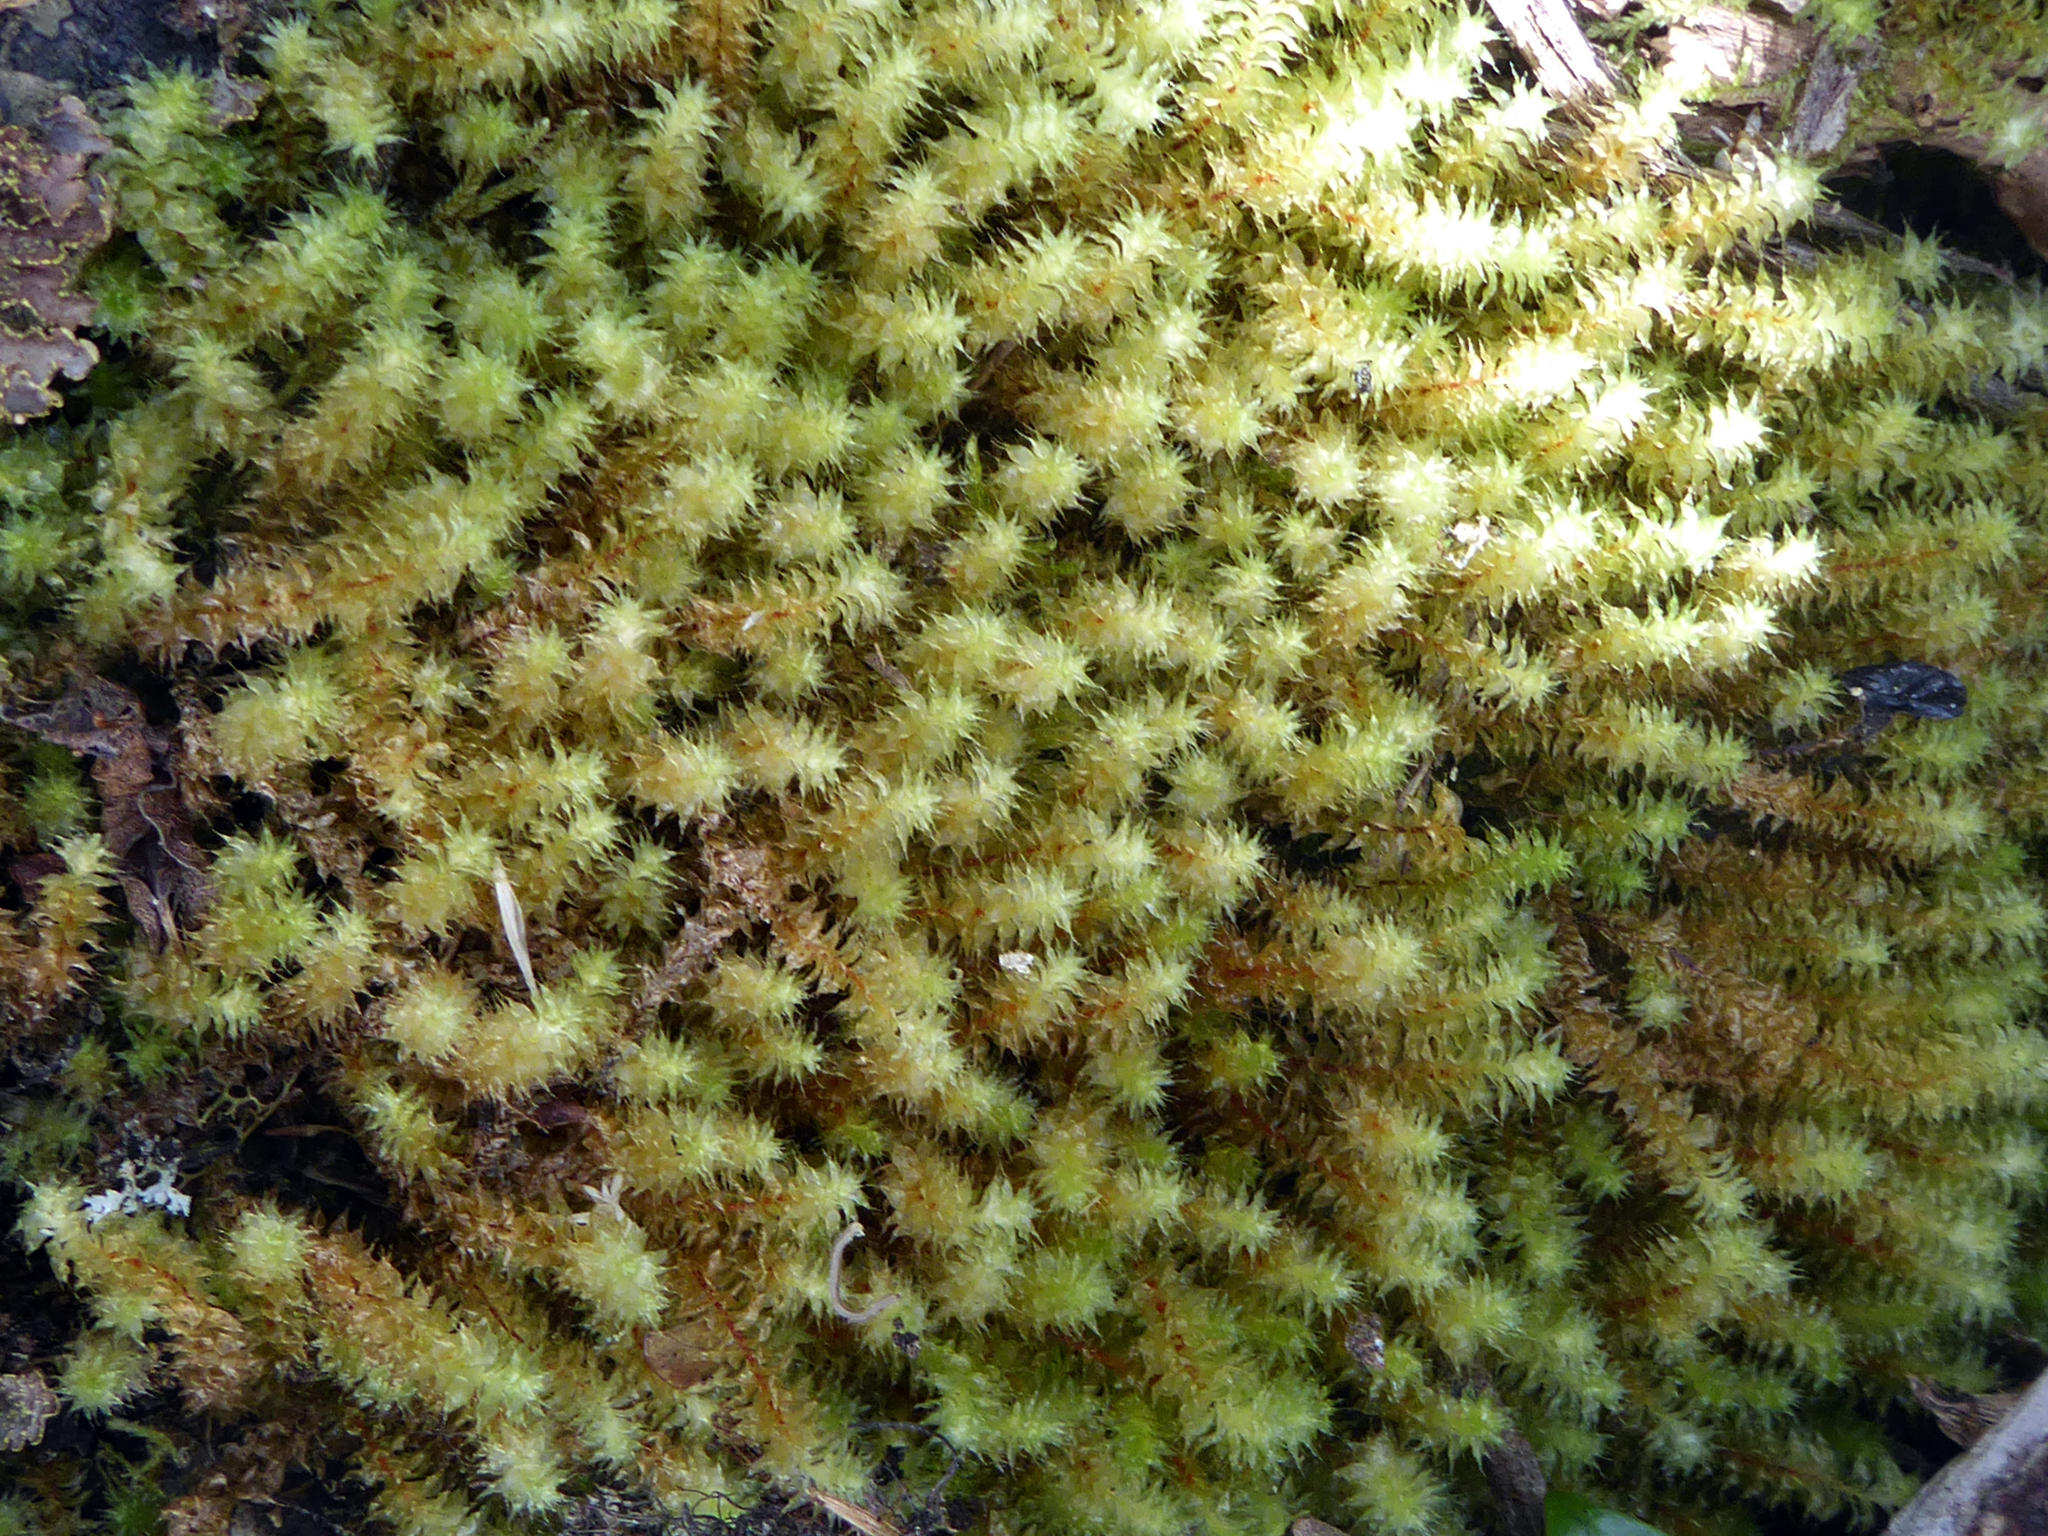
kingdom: Plantae
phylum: Bryophyta
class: Bryopsida
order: Ptychomniales
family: Ptychomniaceae
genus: Ptychomnion
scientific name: Ptychomnion aciculare
